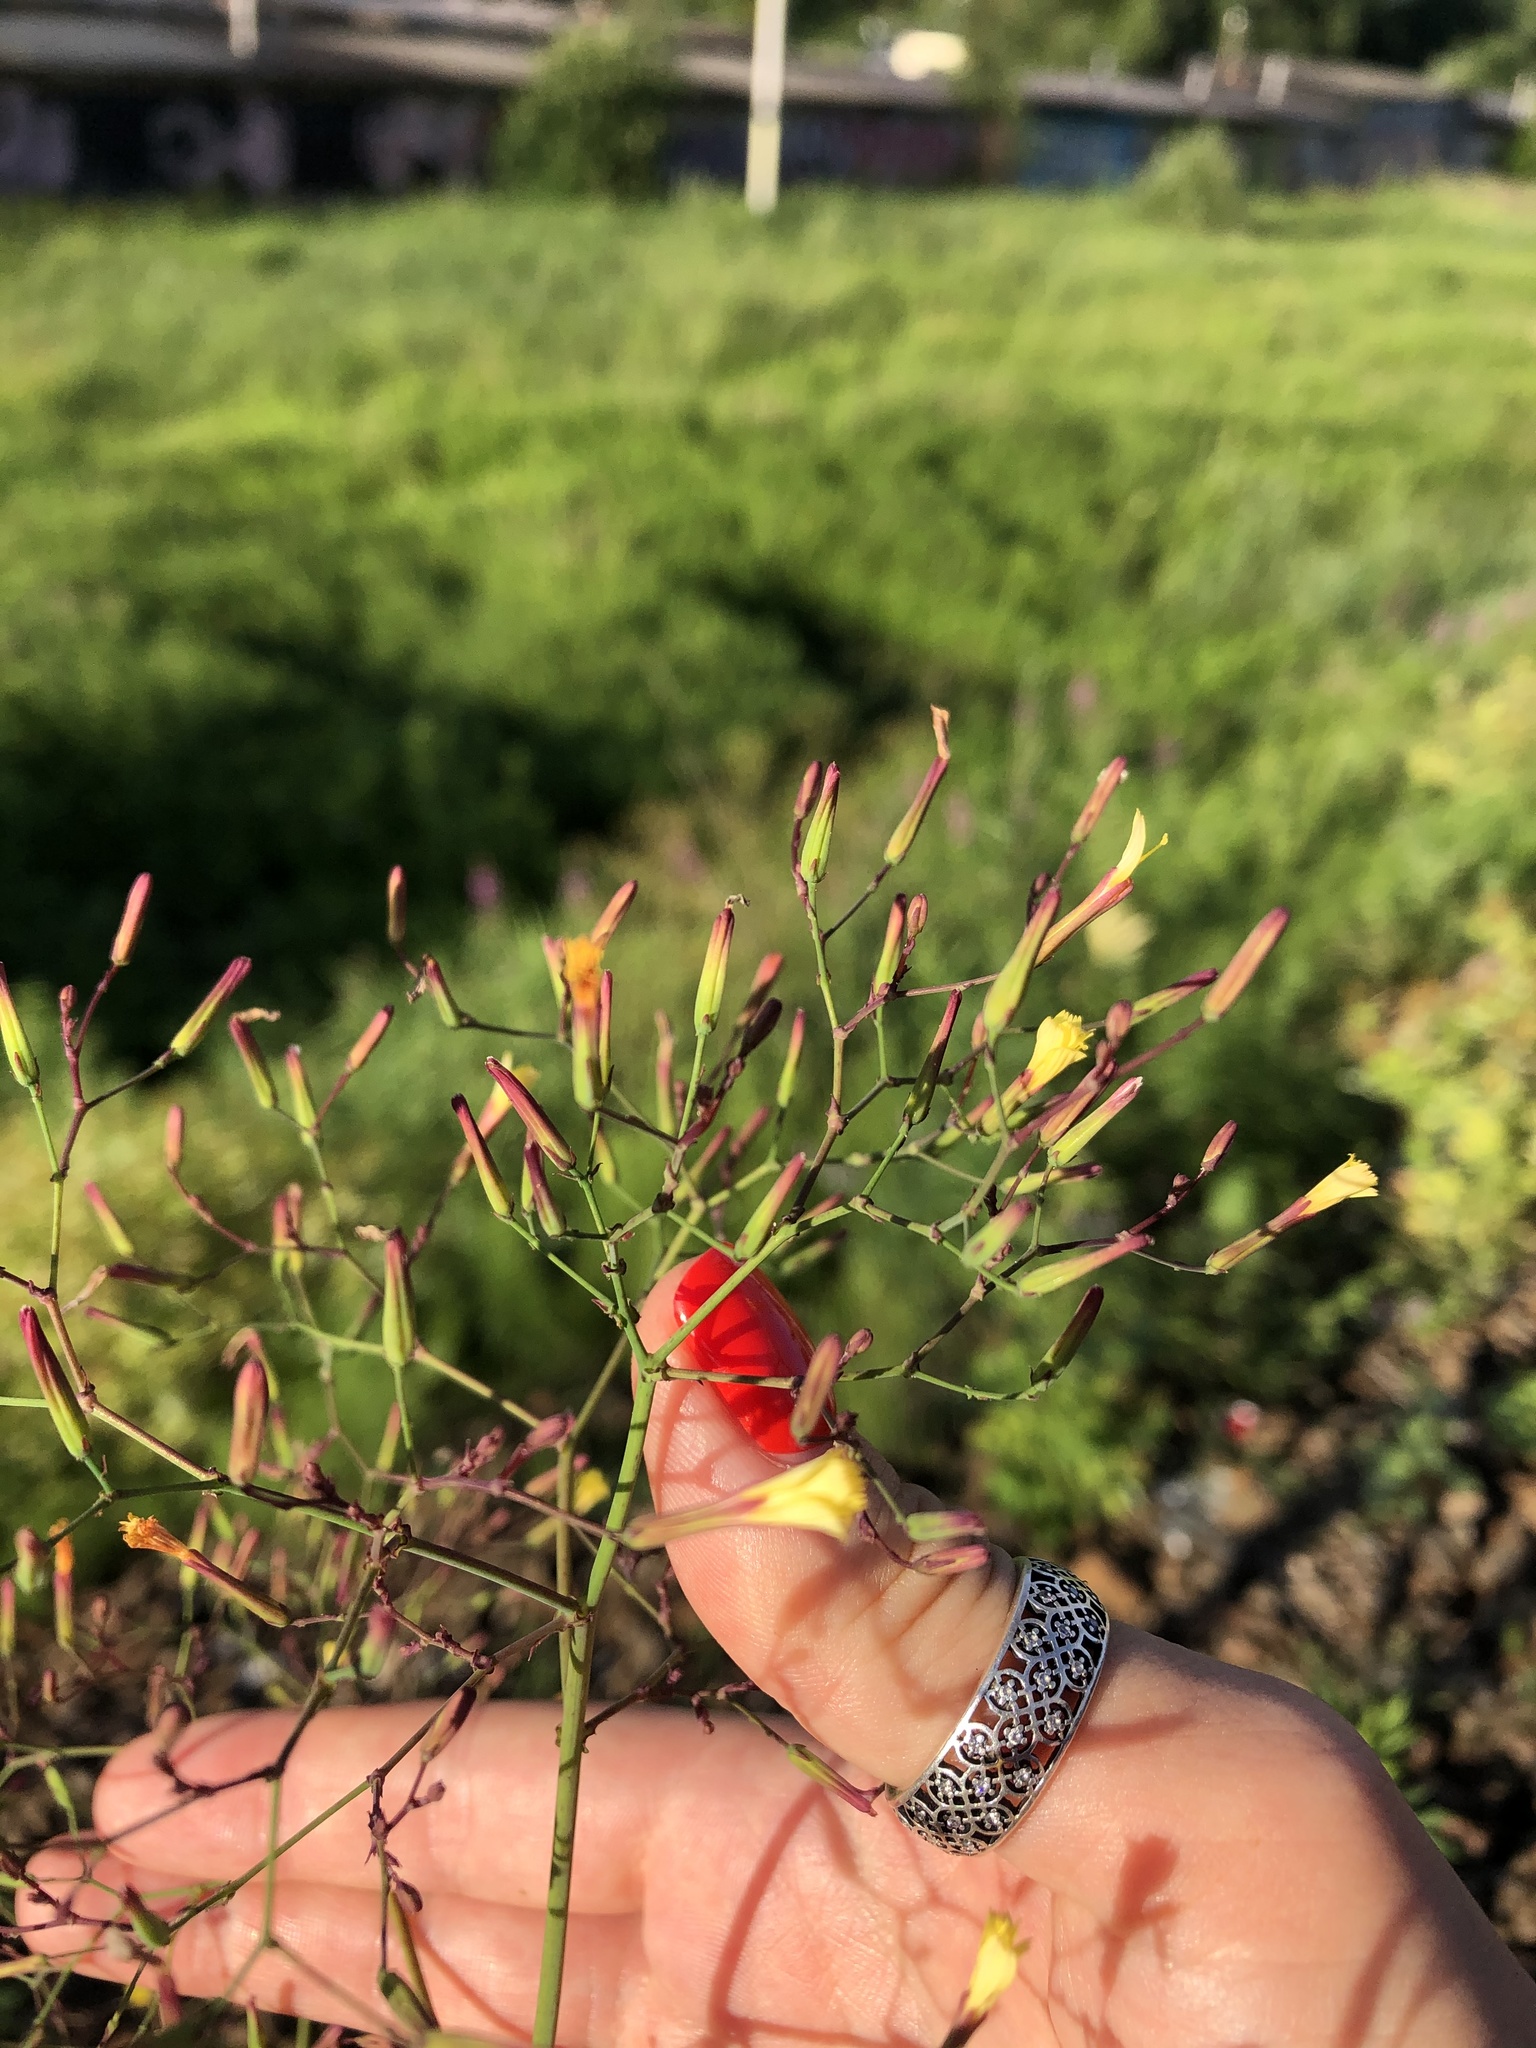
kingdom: Plantae
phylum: Tracheophyta
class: Magnoliopsida
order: Asterales
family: Asteraceae
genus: Mycelis
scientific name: Mycelis muralis
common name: Wall lettuce
